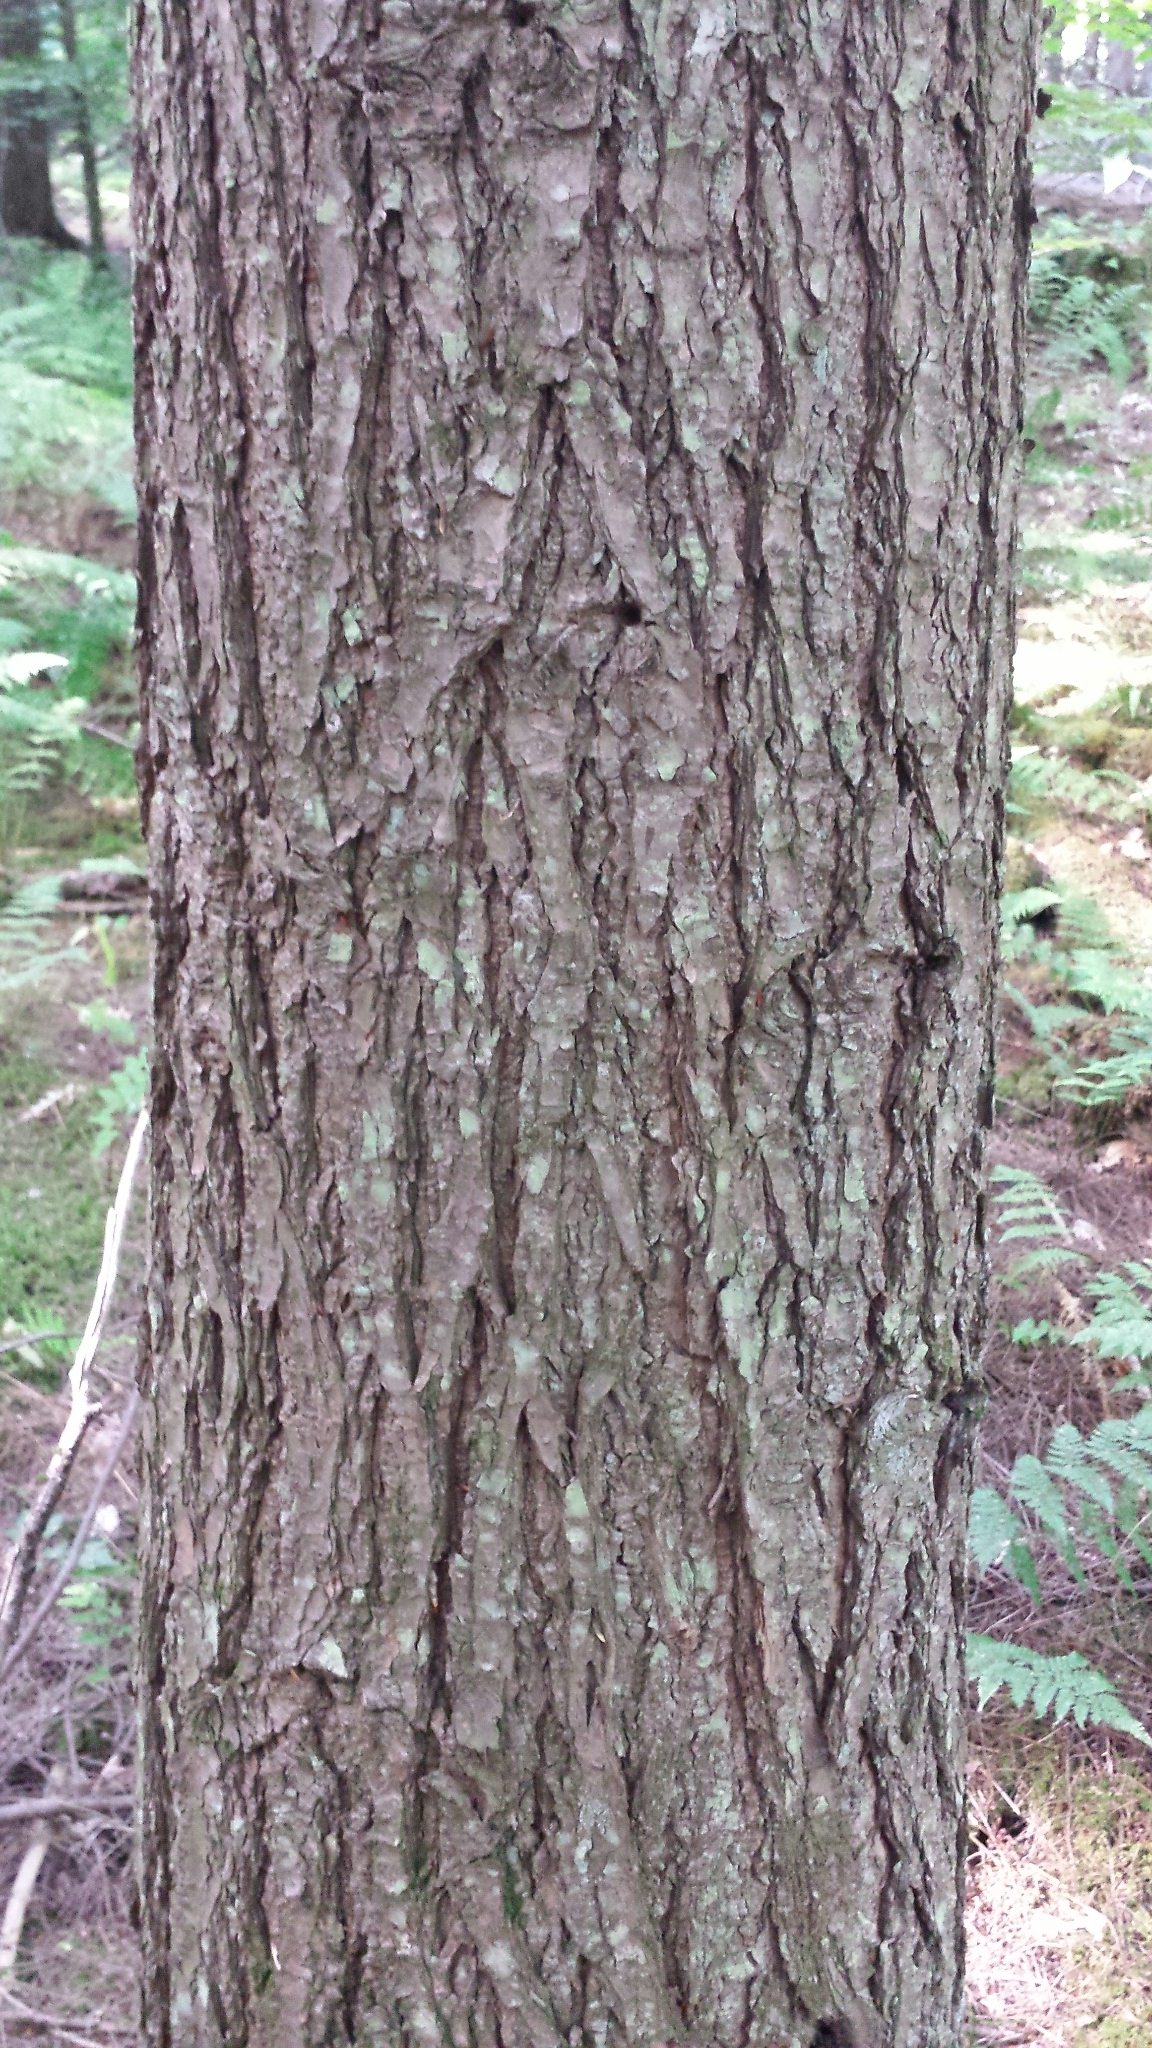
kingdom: Plantae
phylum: Tracheophyta
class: Pinopsida
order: Pinales
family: Pinaceae
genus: Tsuga
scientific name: Tsuga canadensis
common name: Eastern hemlock
